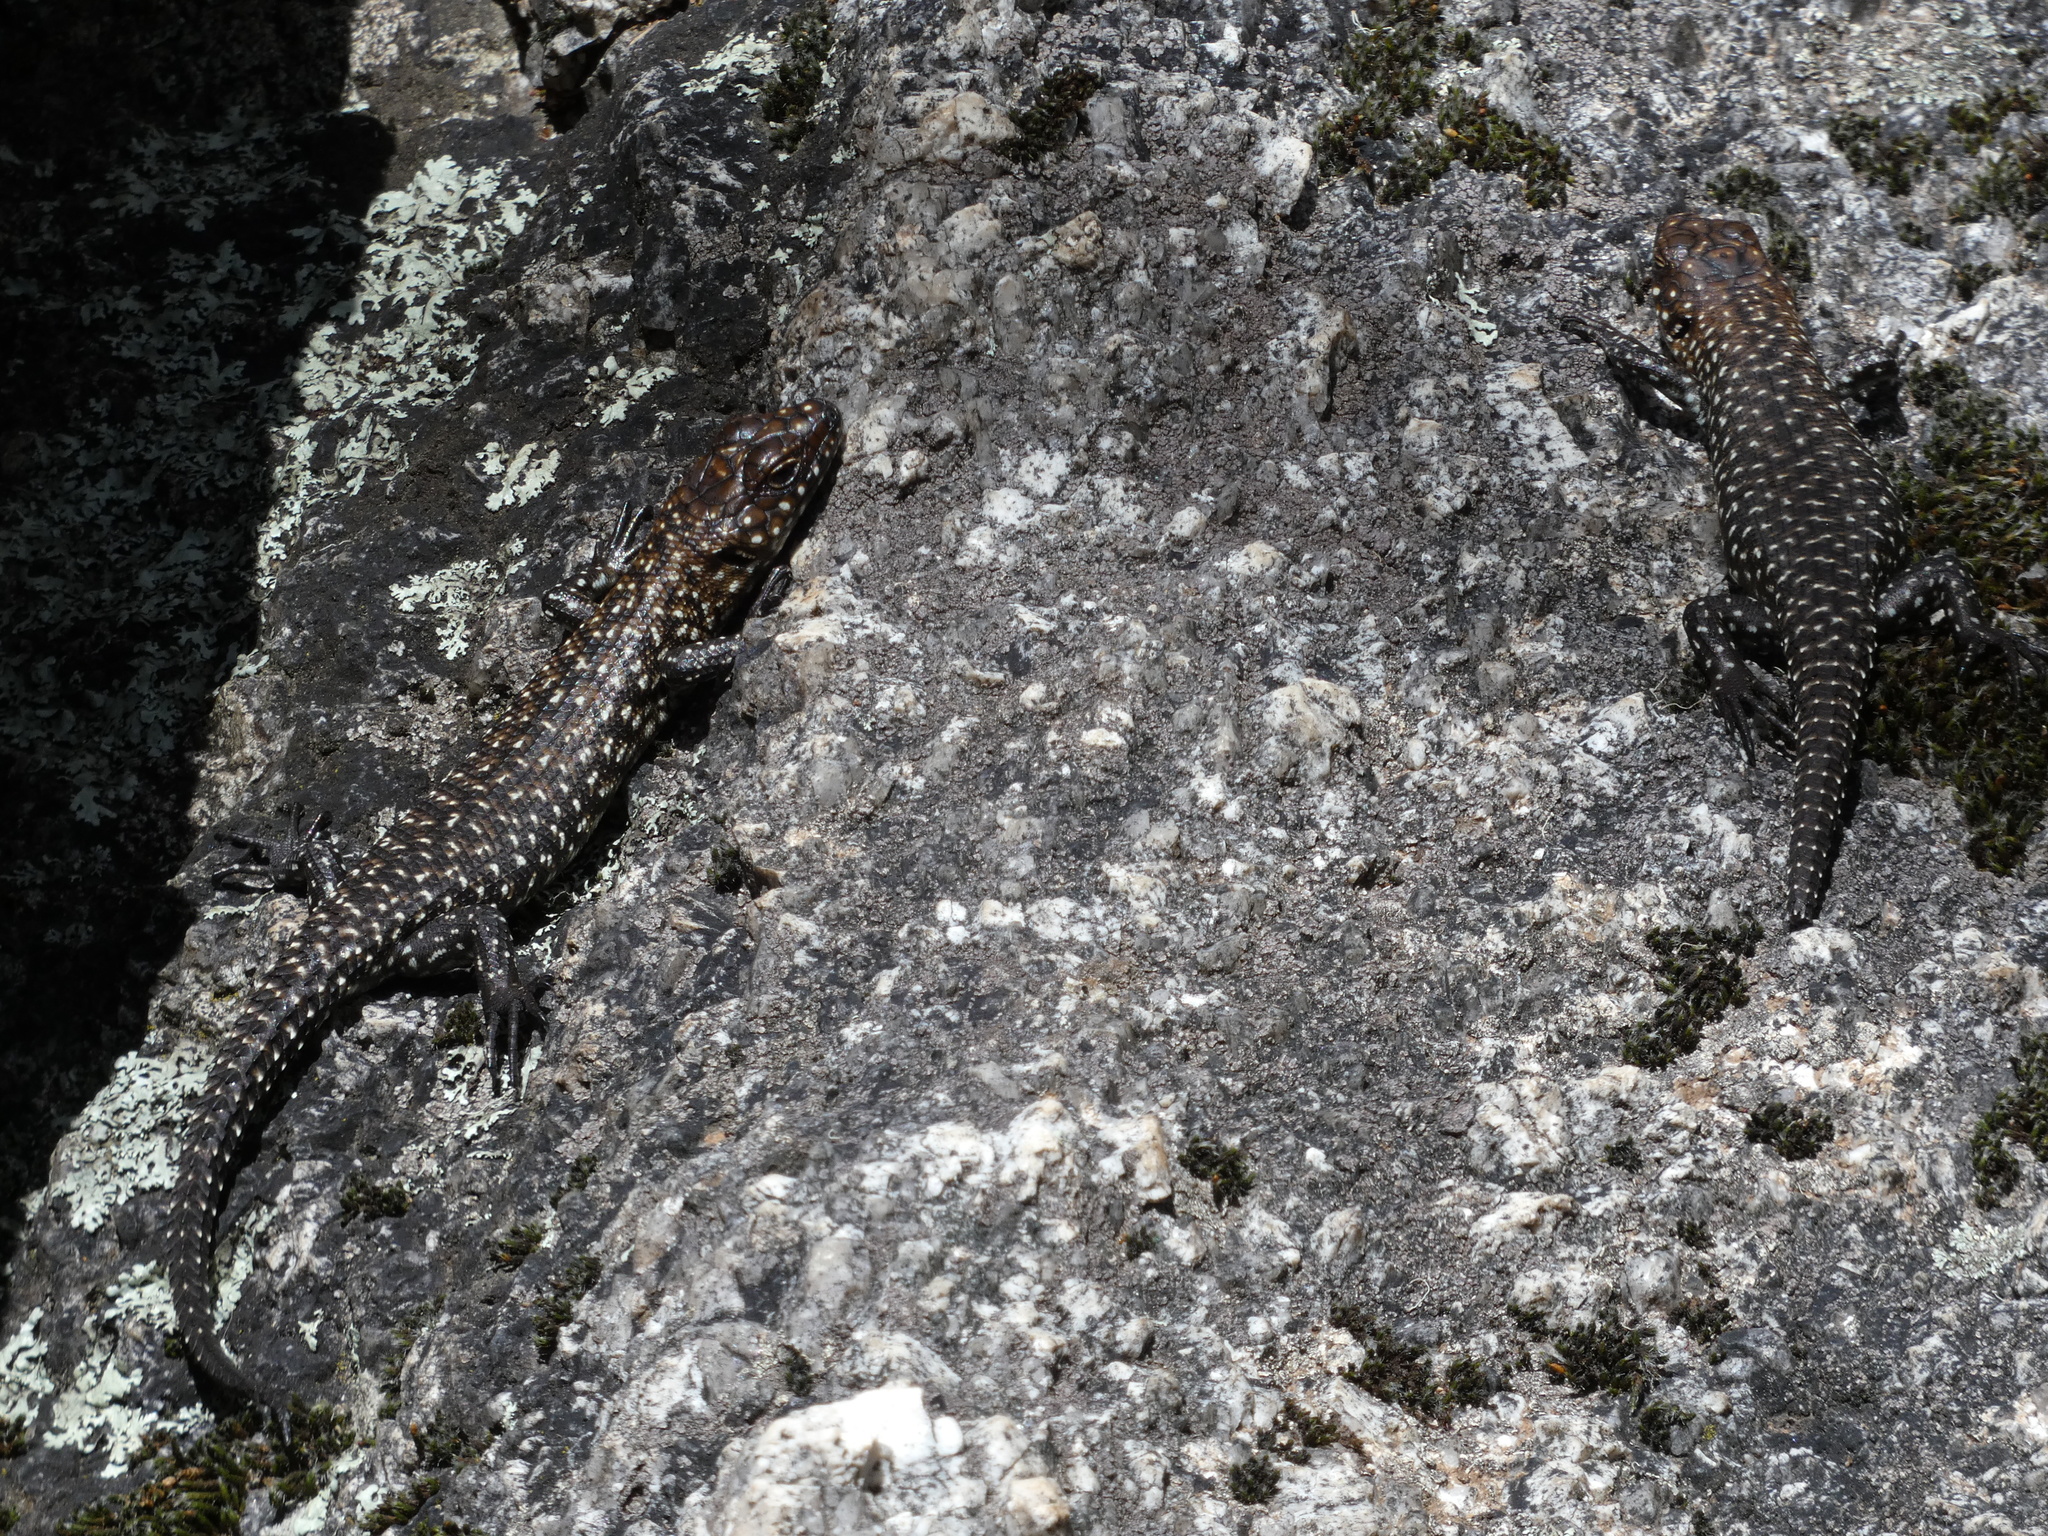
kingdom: Animalia
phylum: Chordata
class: Squamata
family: Scincidae
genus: Egernia
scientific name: Egernia cunninghami
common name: Cunningham's skink
